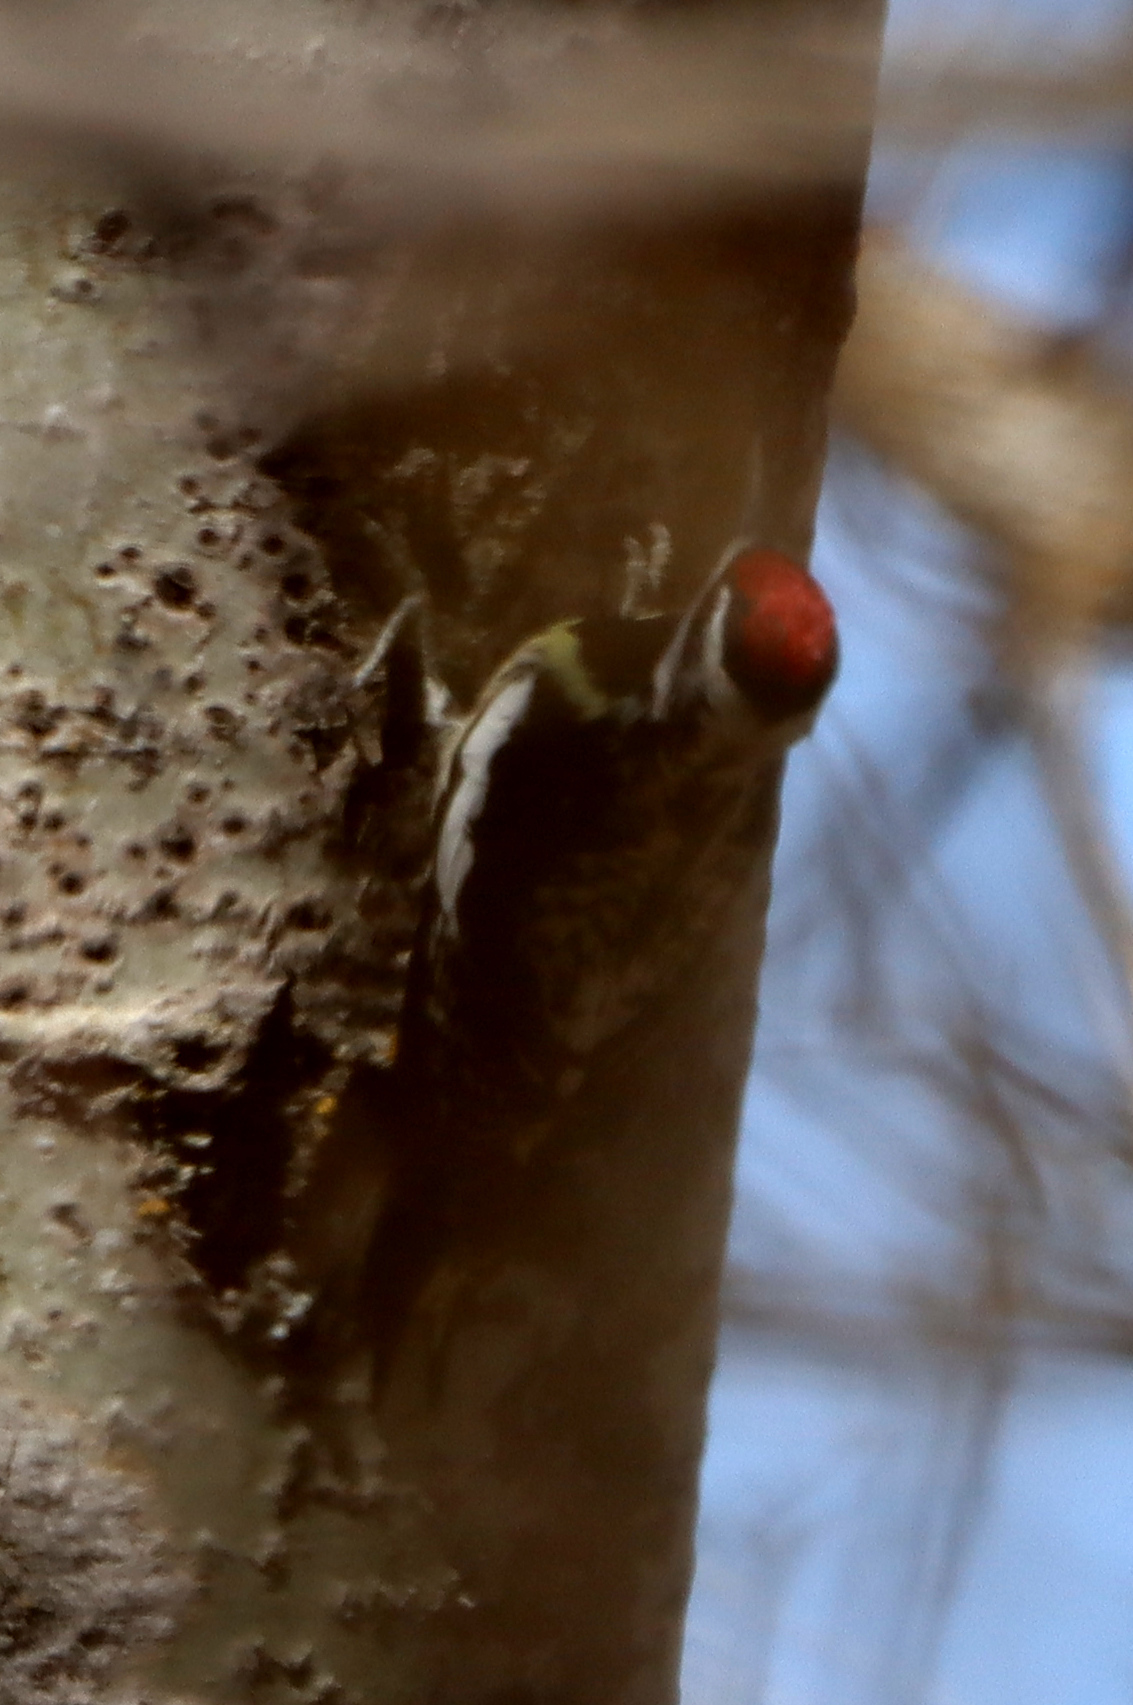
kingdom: Animalia
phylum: Chordata
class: Aves
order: Piciformes
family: Picidae
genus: Sphyrapicus
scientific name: Sphyrapicus varius
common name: Yellow-bellied sapsucker
